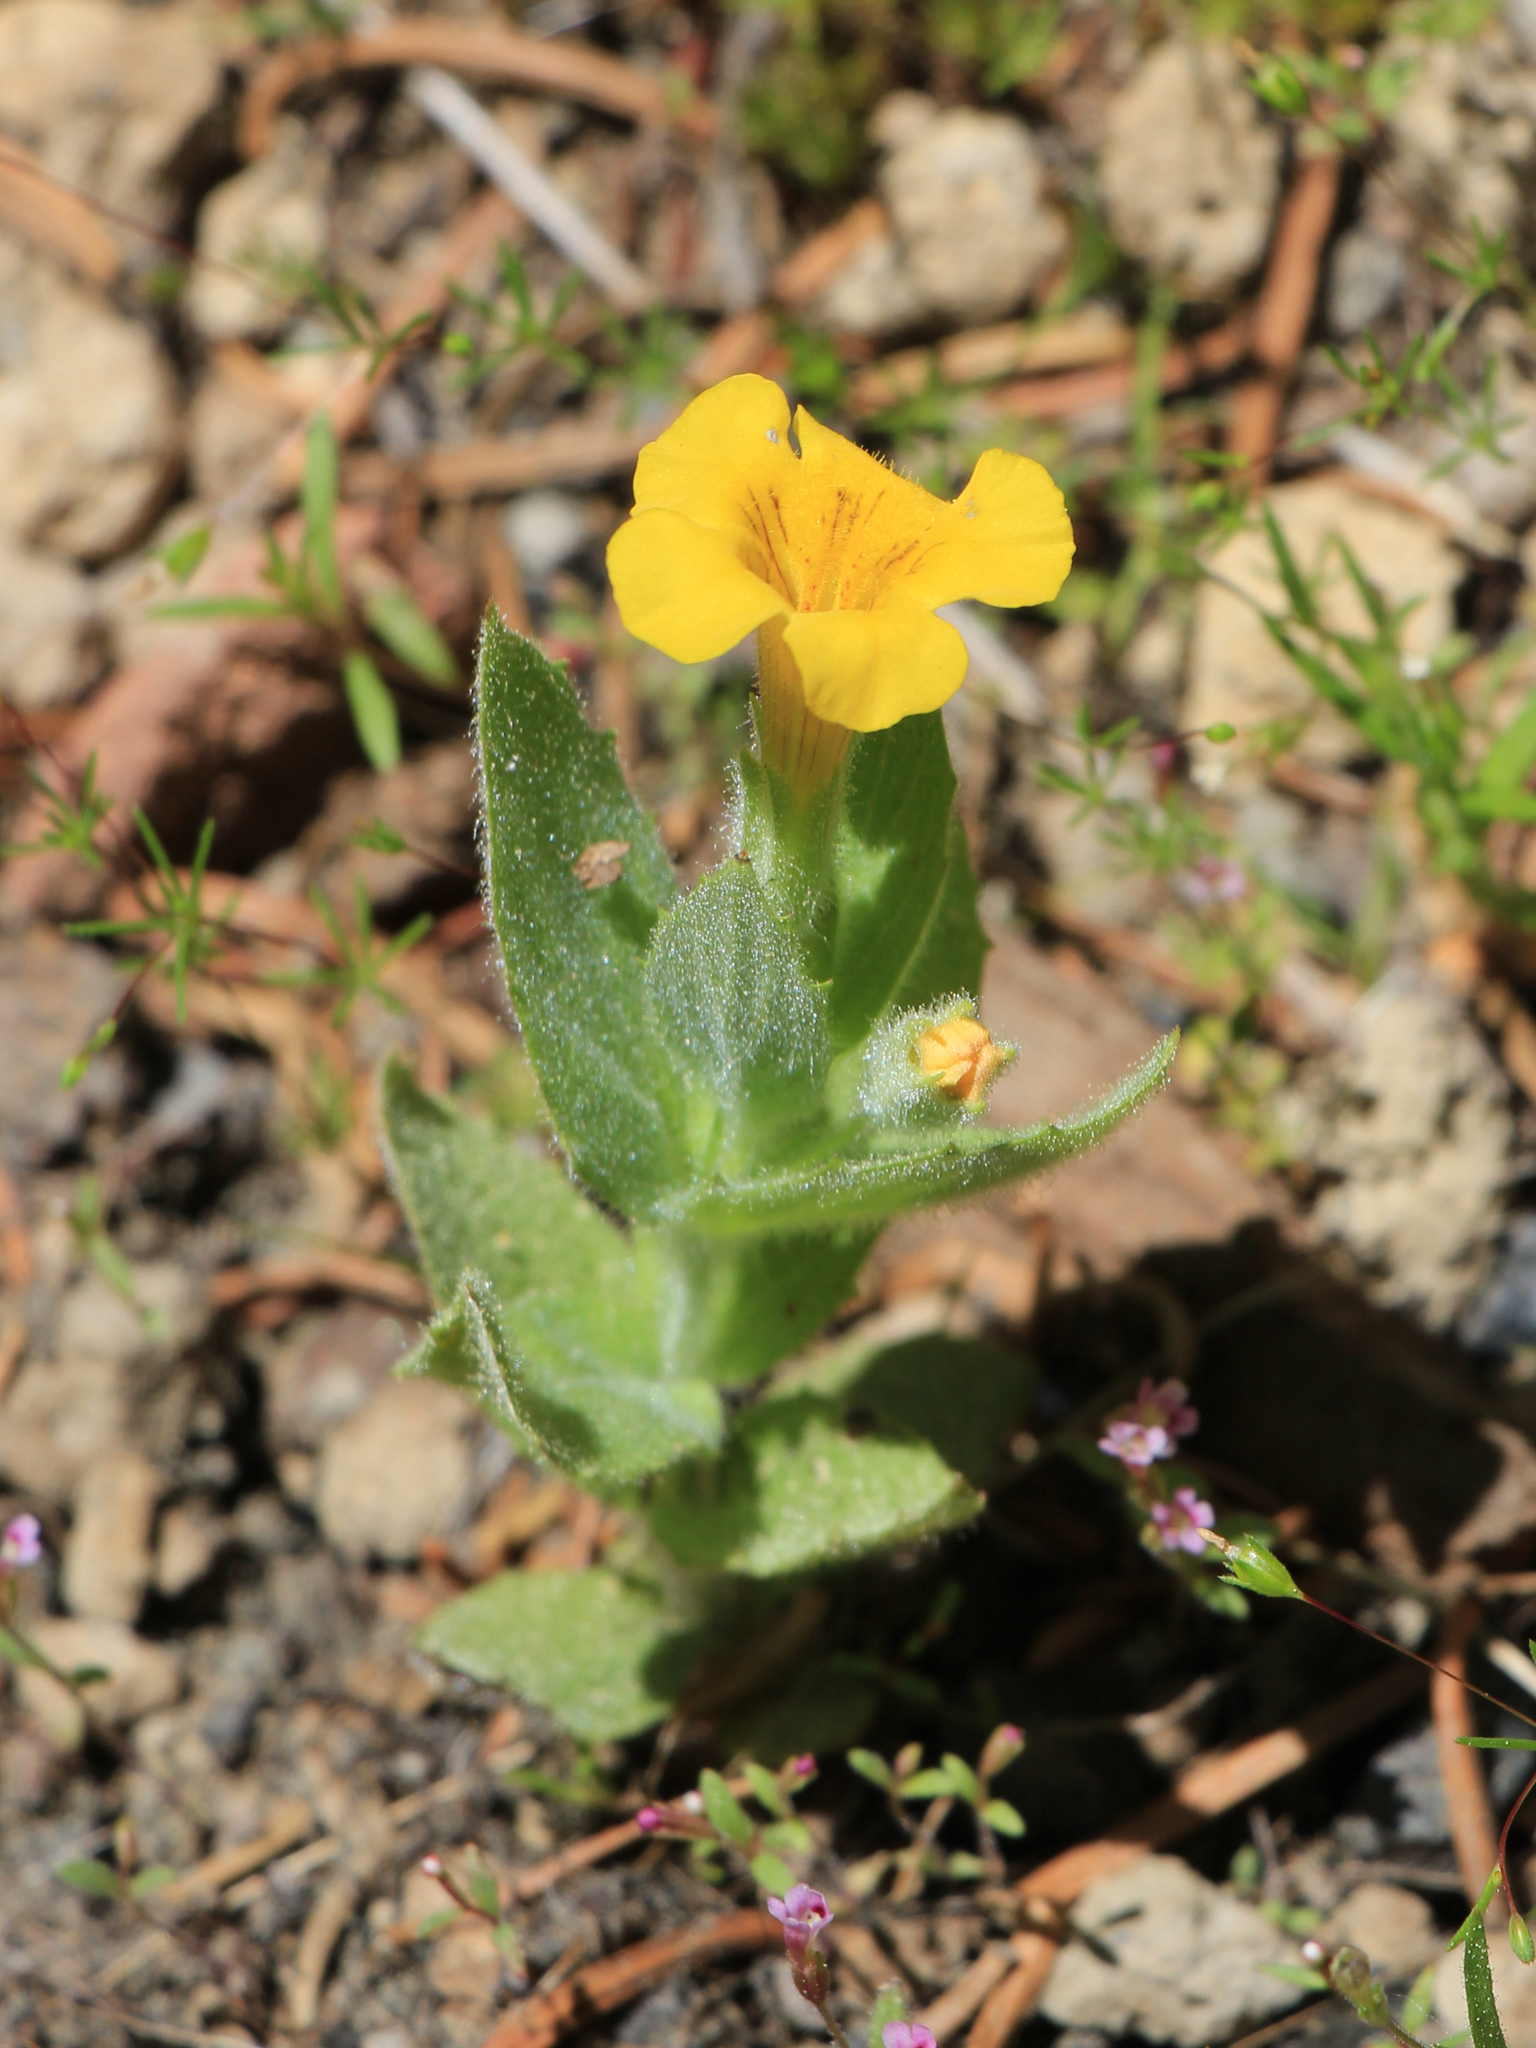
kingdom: Plantae
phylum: Tracheophyta
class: Magnoliopsida
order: Lamiales
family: Phrymaceae
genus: Erythranthe
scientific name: Erythranthe moschata
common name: Muskflower
